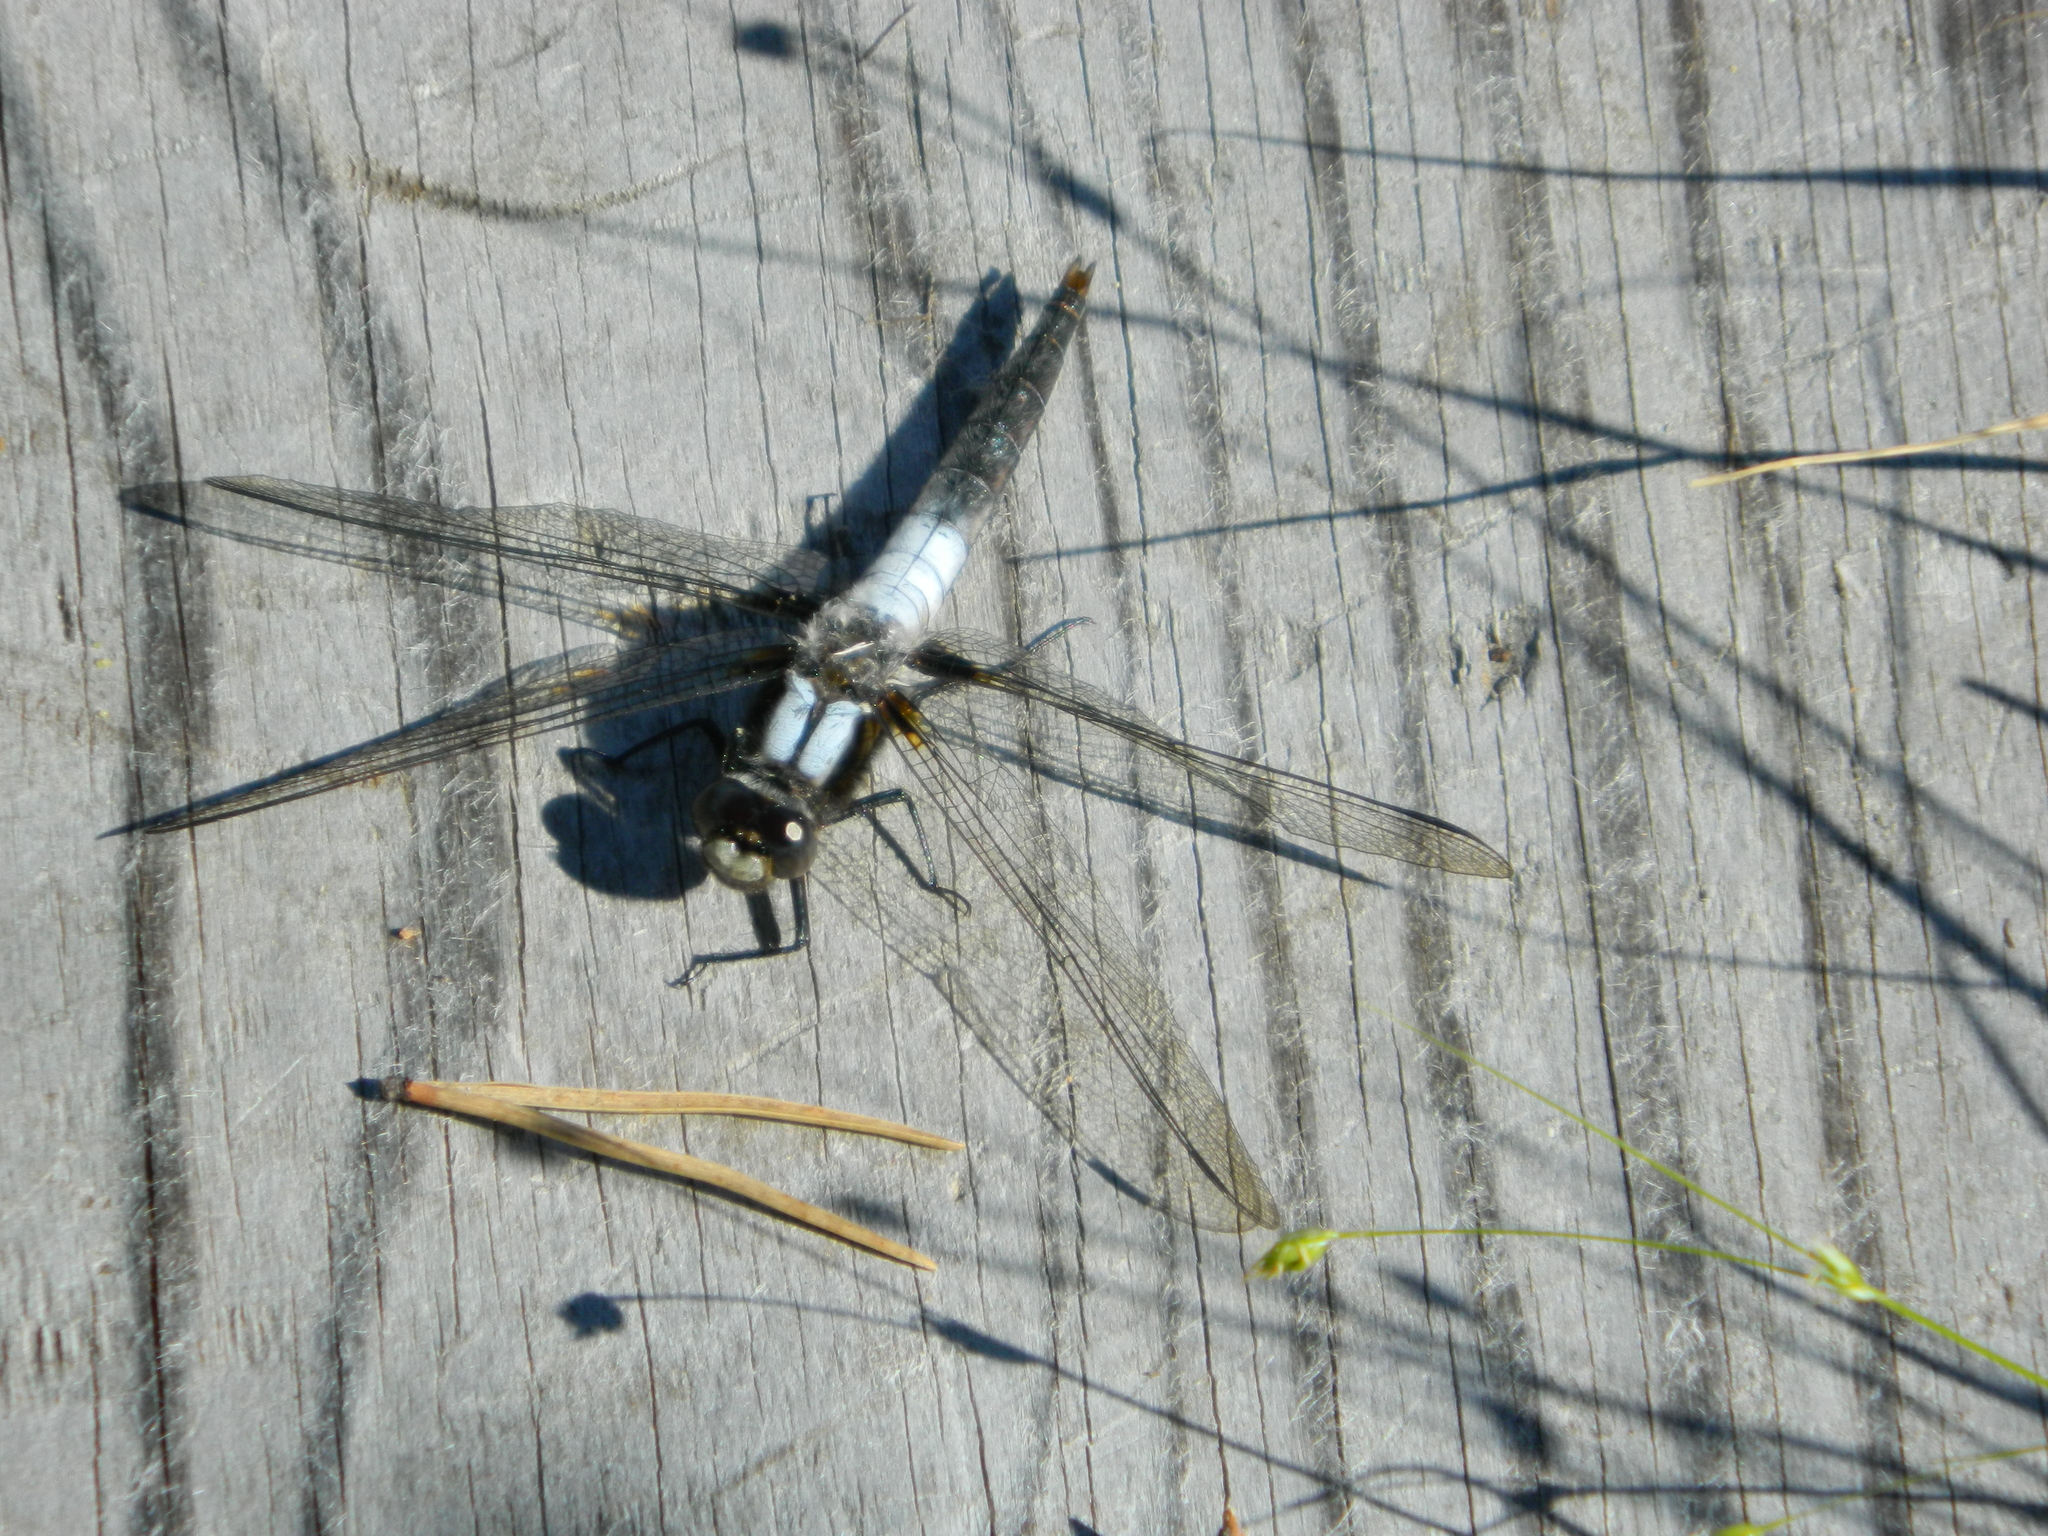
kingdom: Animalia
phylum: Arthropoda
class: Insecta
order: Odonata
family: Libellulidae
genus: Ladona
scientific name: Ladona julia
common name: Chalk-fronted corporal
